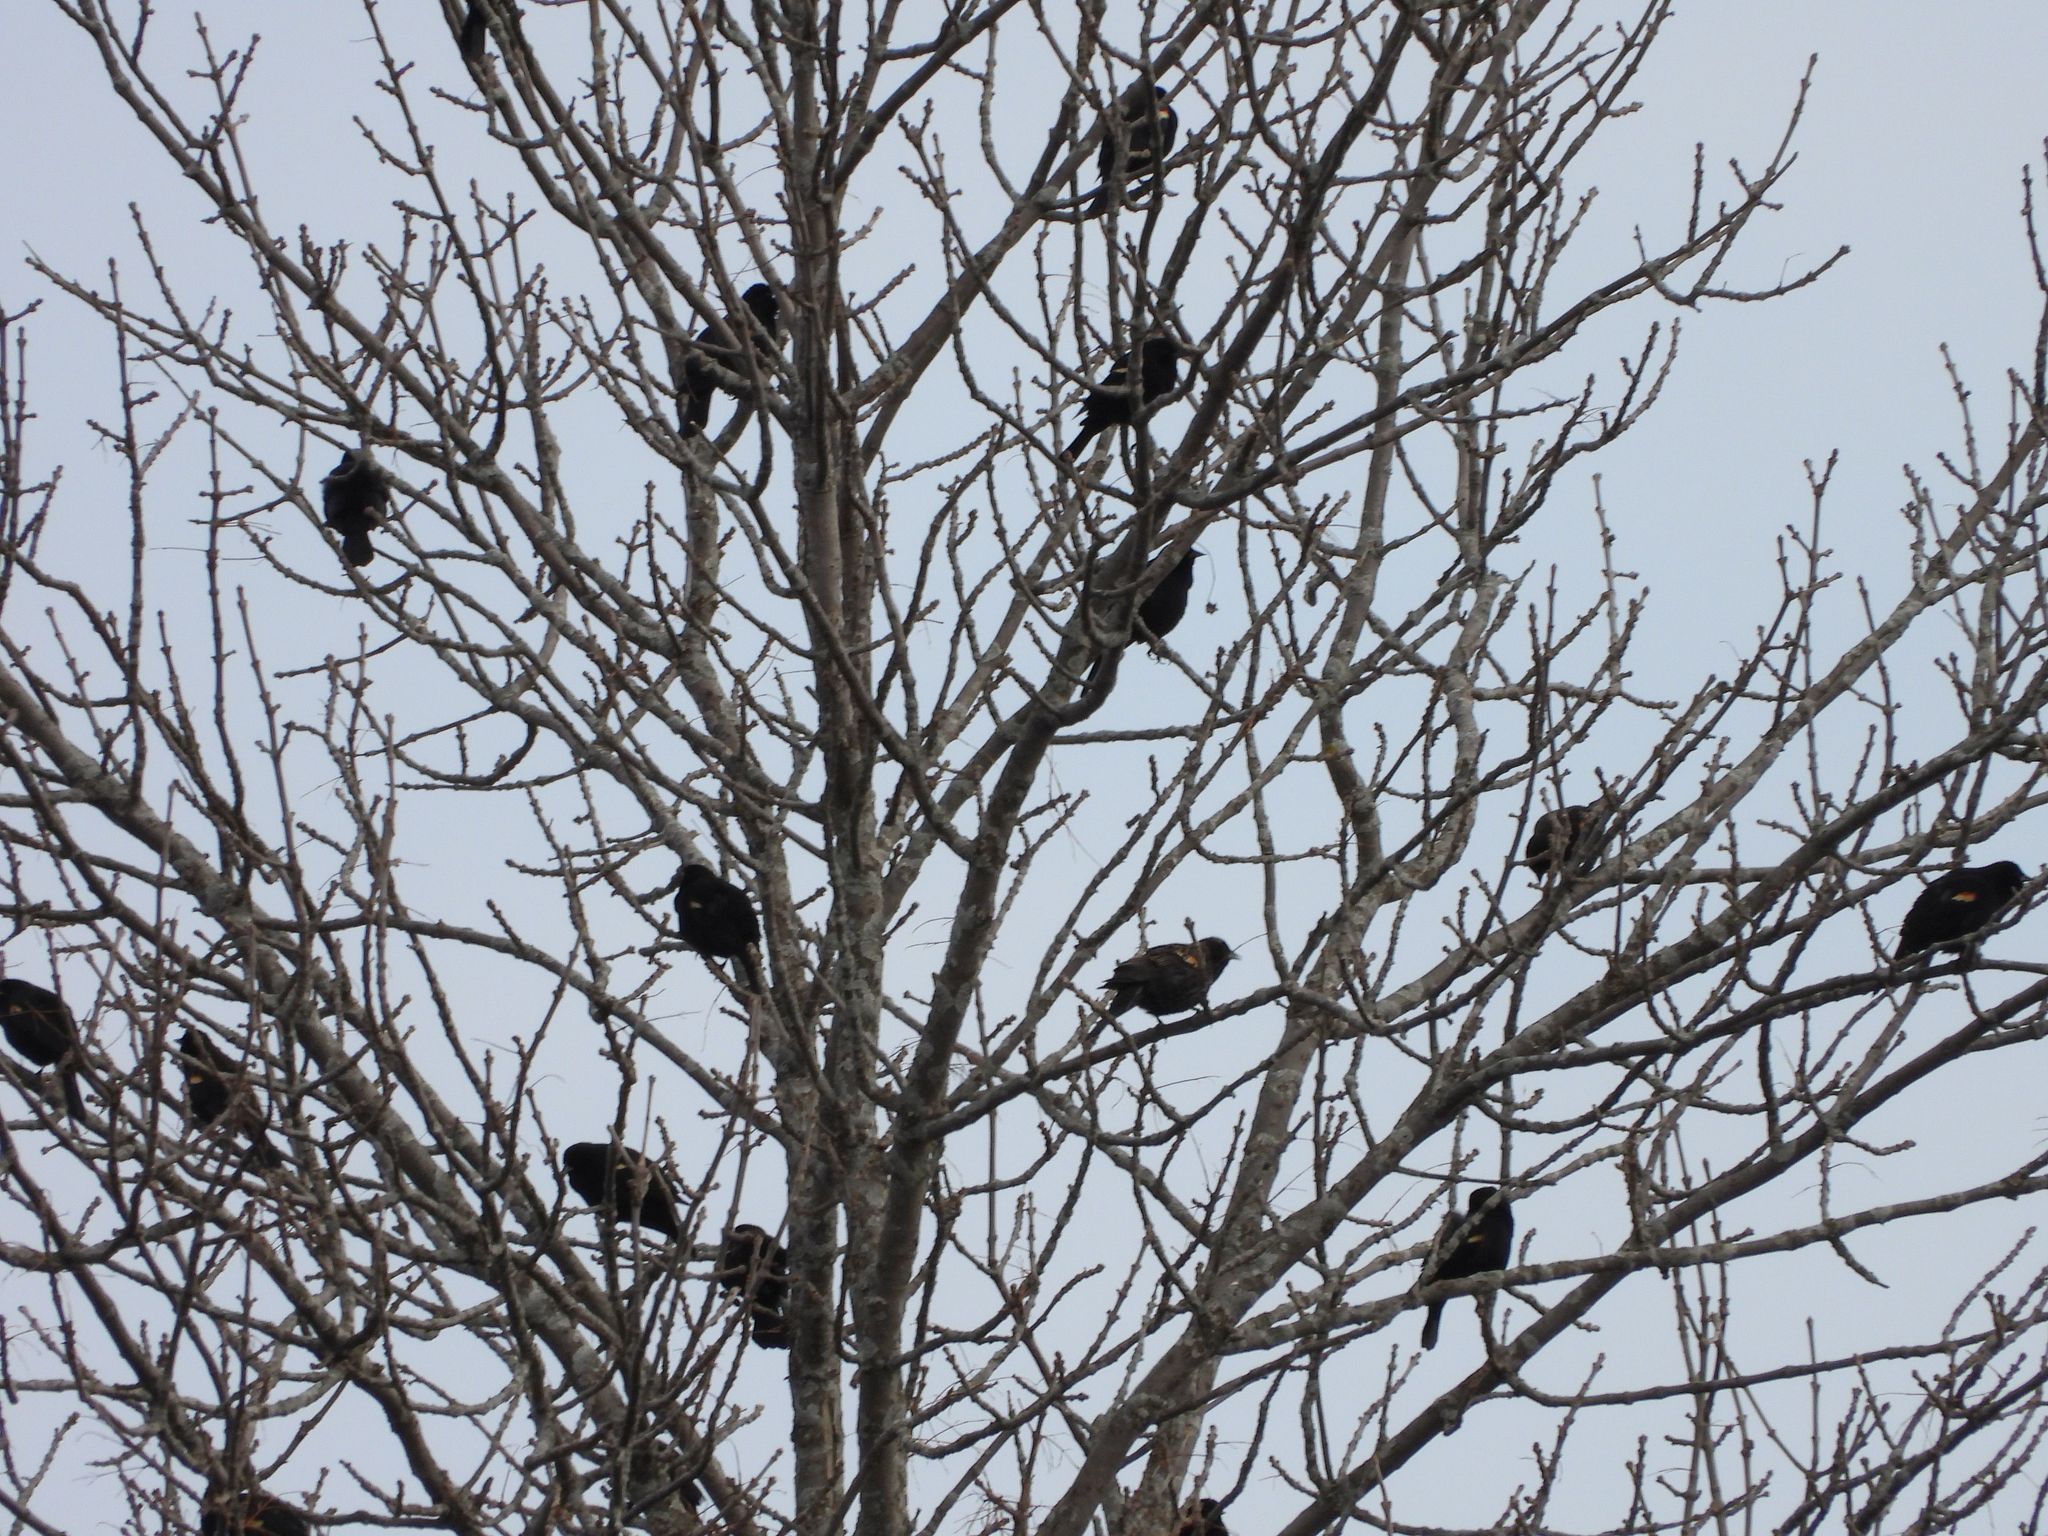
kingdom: Animalia
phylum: Chordata
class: Aves
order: Passeriformes
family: Icteridae
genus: Agelaius
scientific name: Agelaius phoeniceus
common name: Red-winged blackbird
